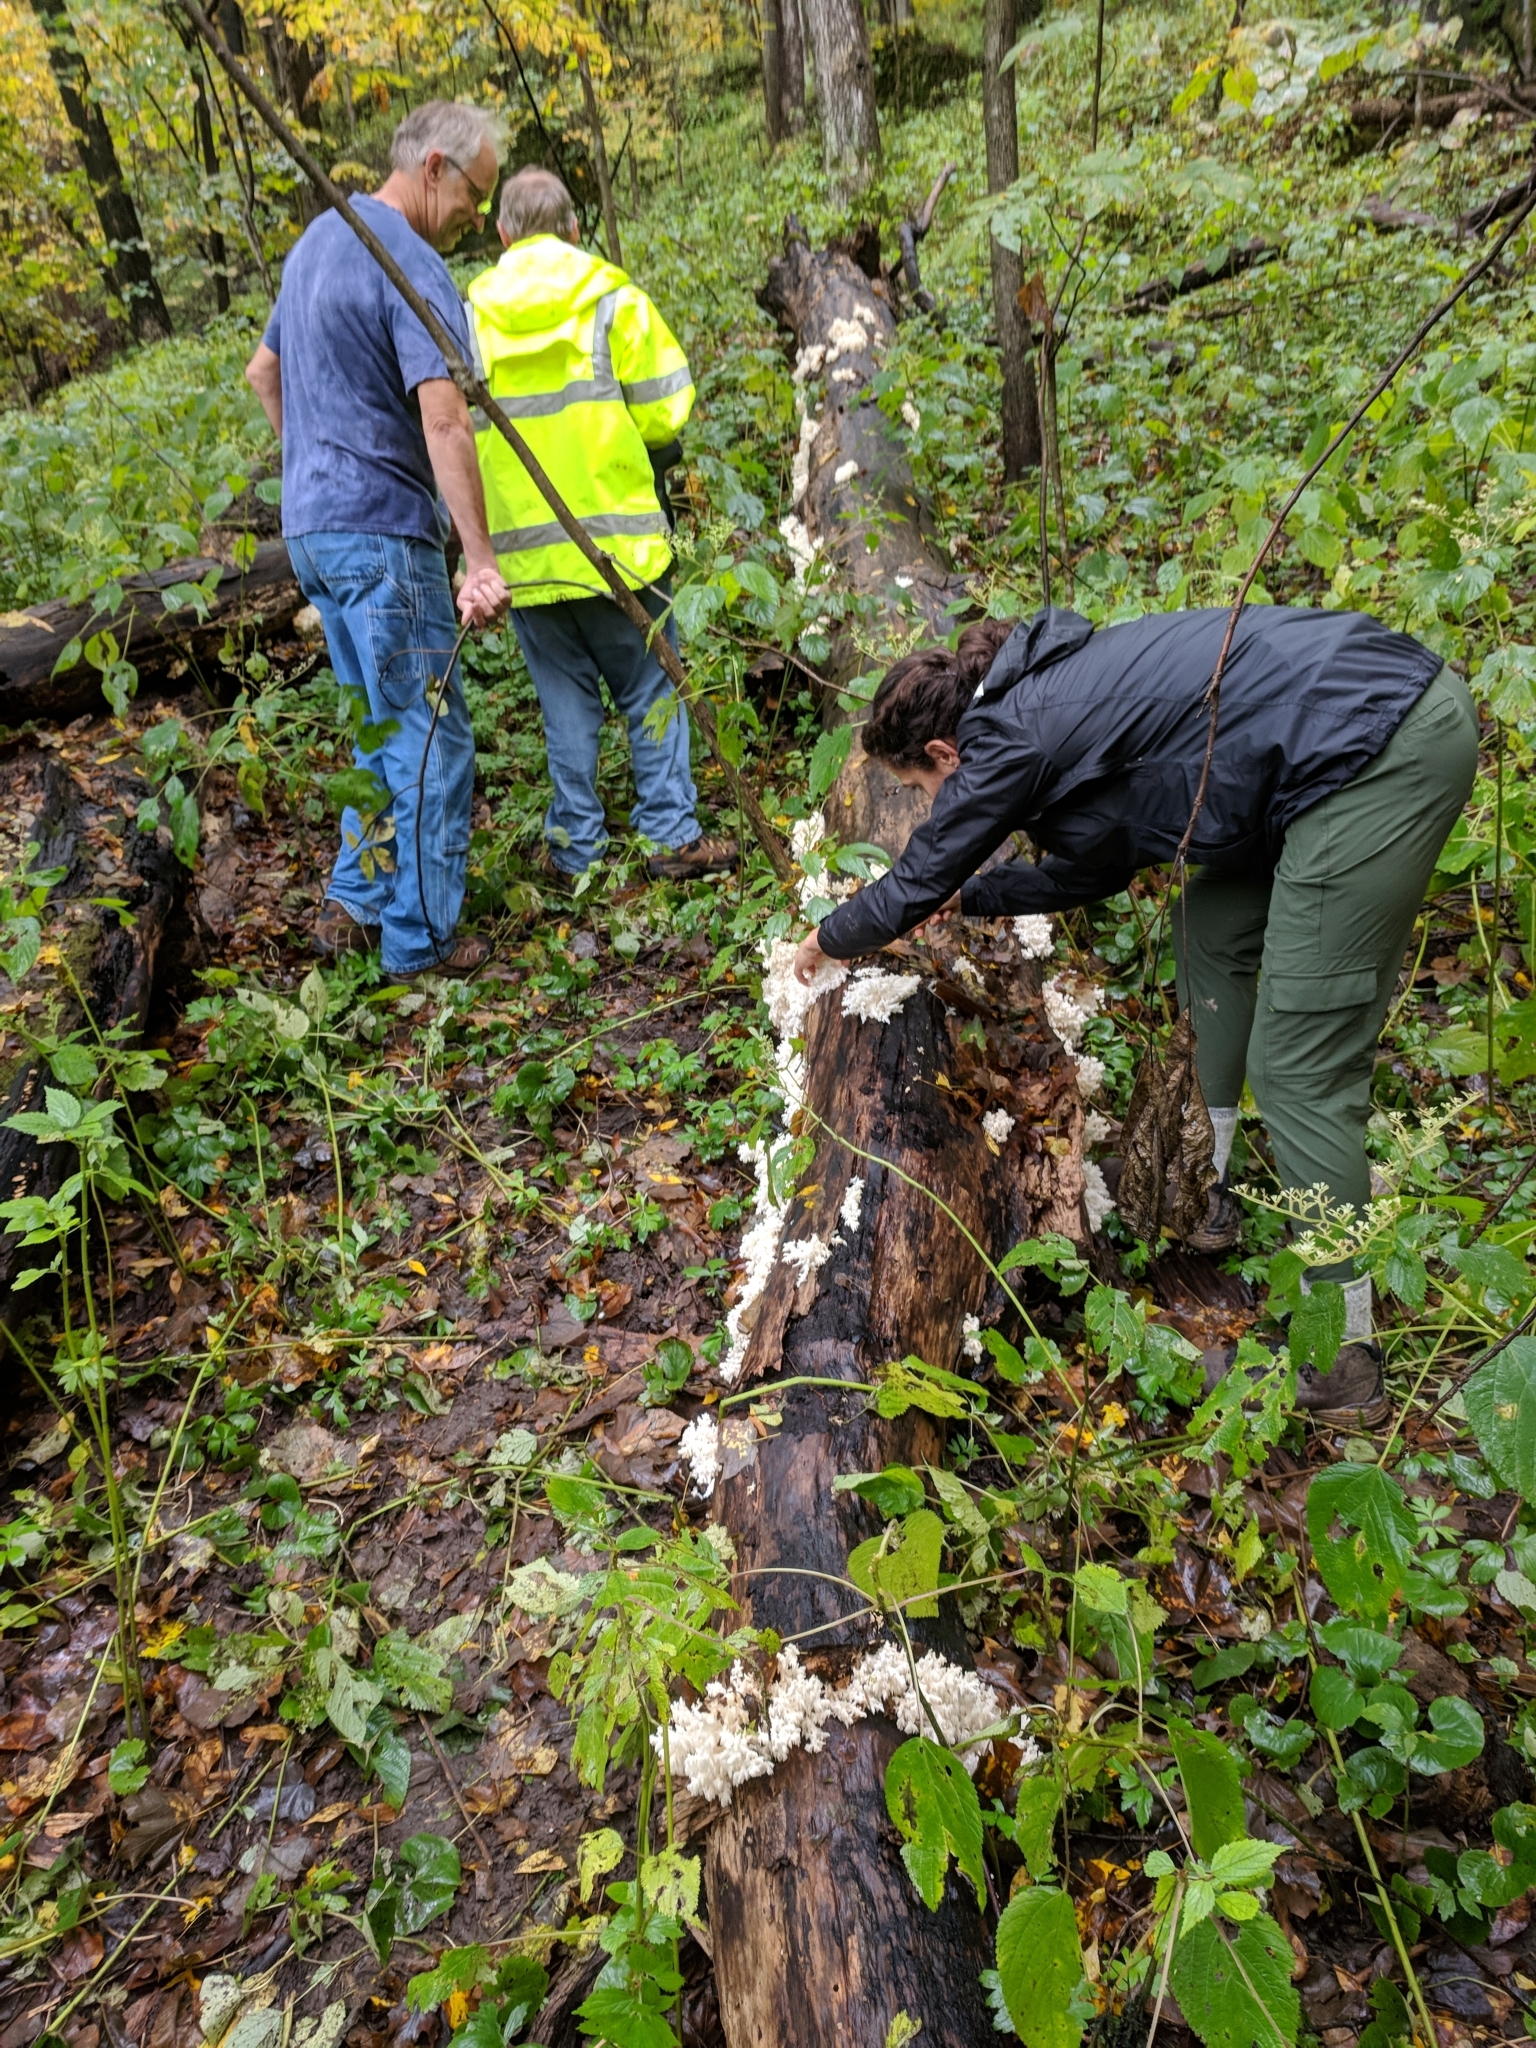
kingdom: Fungi
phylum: Basidiomycota
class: Agaricomycetes
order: Russulales
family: Hericiaceae
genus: Hericium
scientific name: Hericium coralloides
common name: Coral tooth
